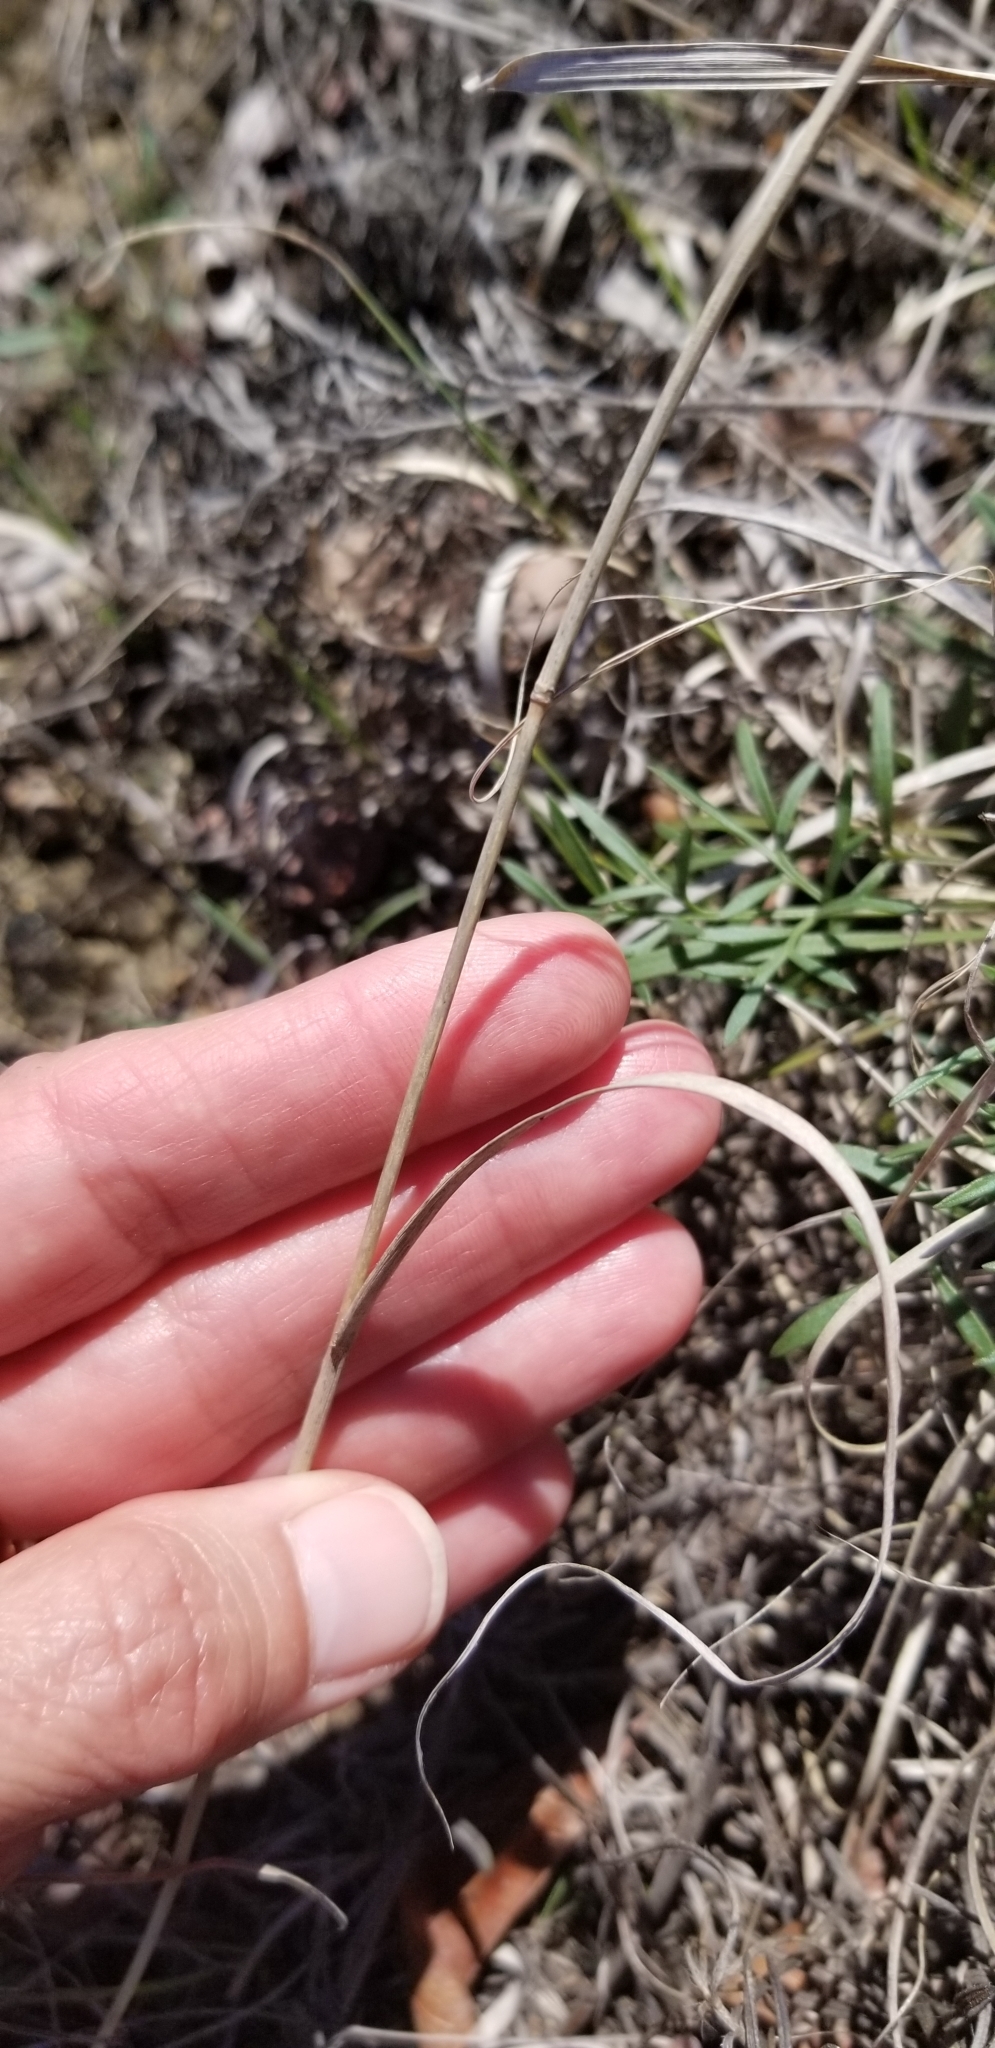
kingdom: Plantae
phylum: Tracheophyta
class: Liliopsida
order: Poales
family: Poaceae
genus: Bouteloua
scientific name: Bouteloua curtipendula
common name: Side-oats grama
